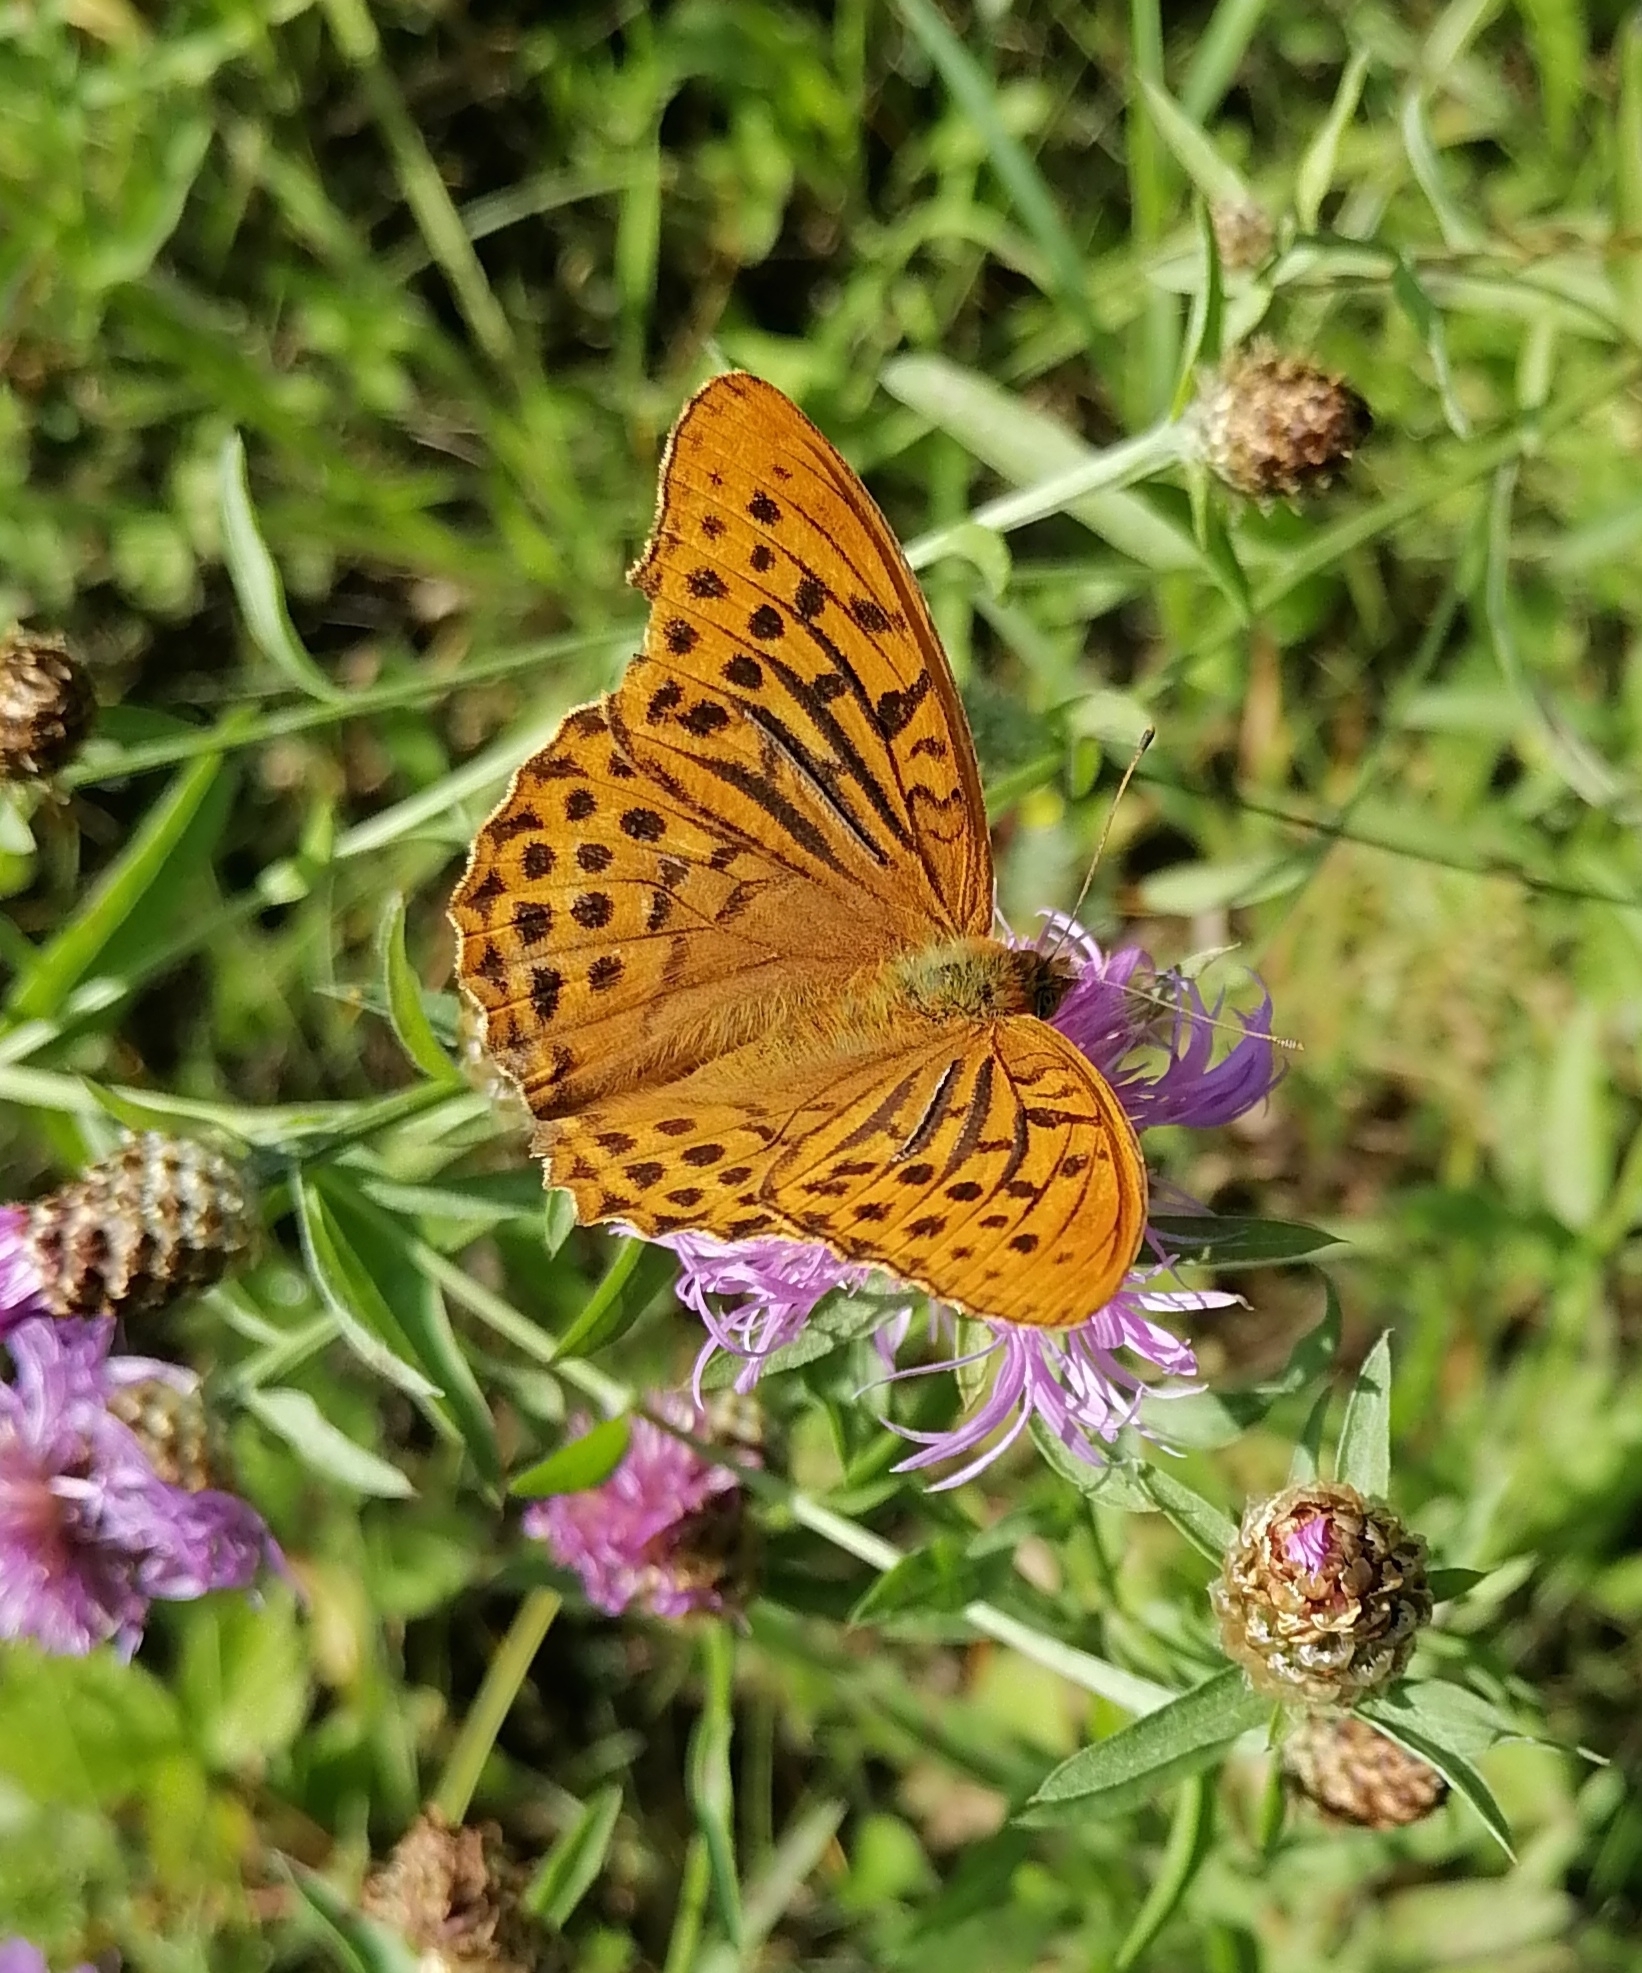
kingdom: Animalia
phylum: Arthropoda
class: Insecta
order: Lepidoptera
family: Nymphalidae
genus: Argynnis
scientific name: Argynnis paphia
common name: Silver-washed fritillary
